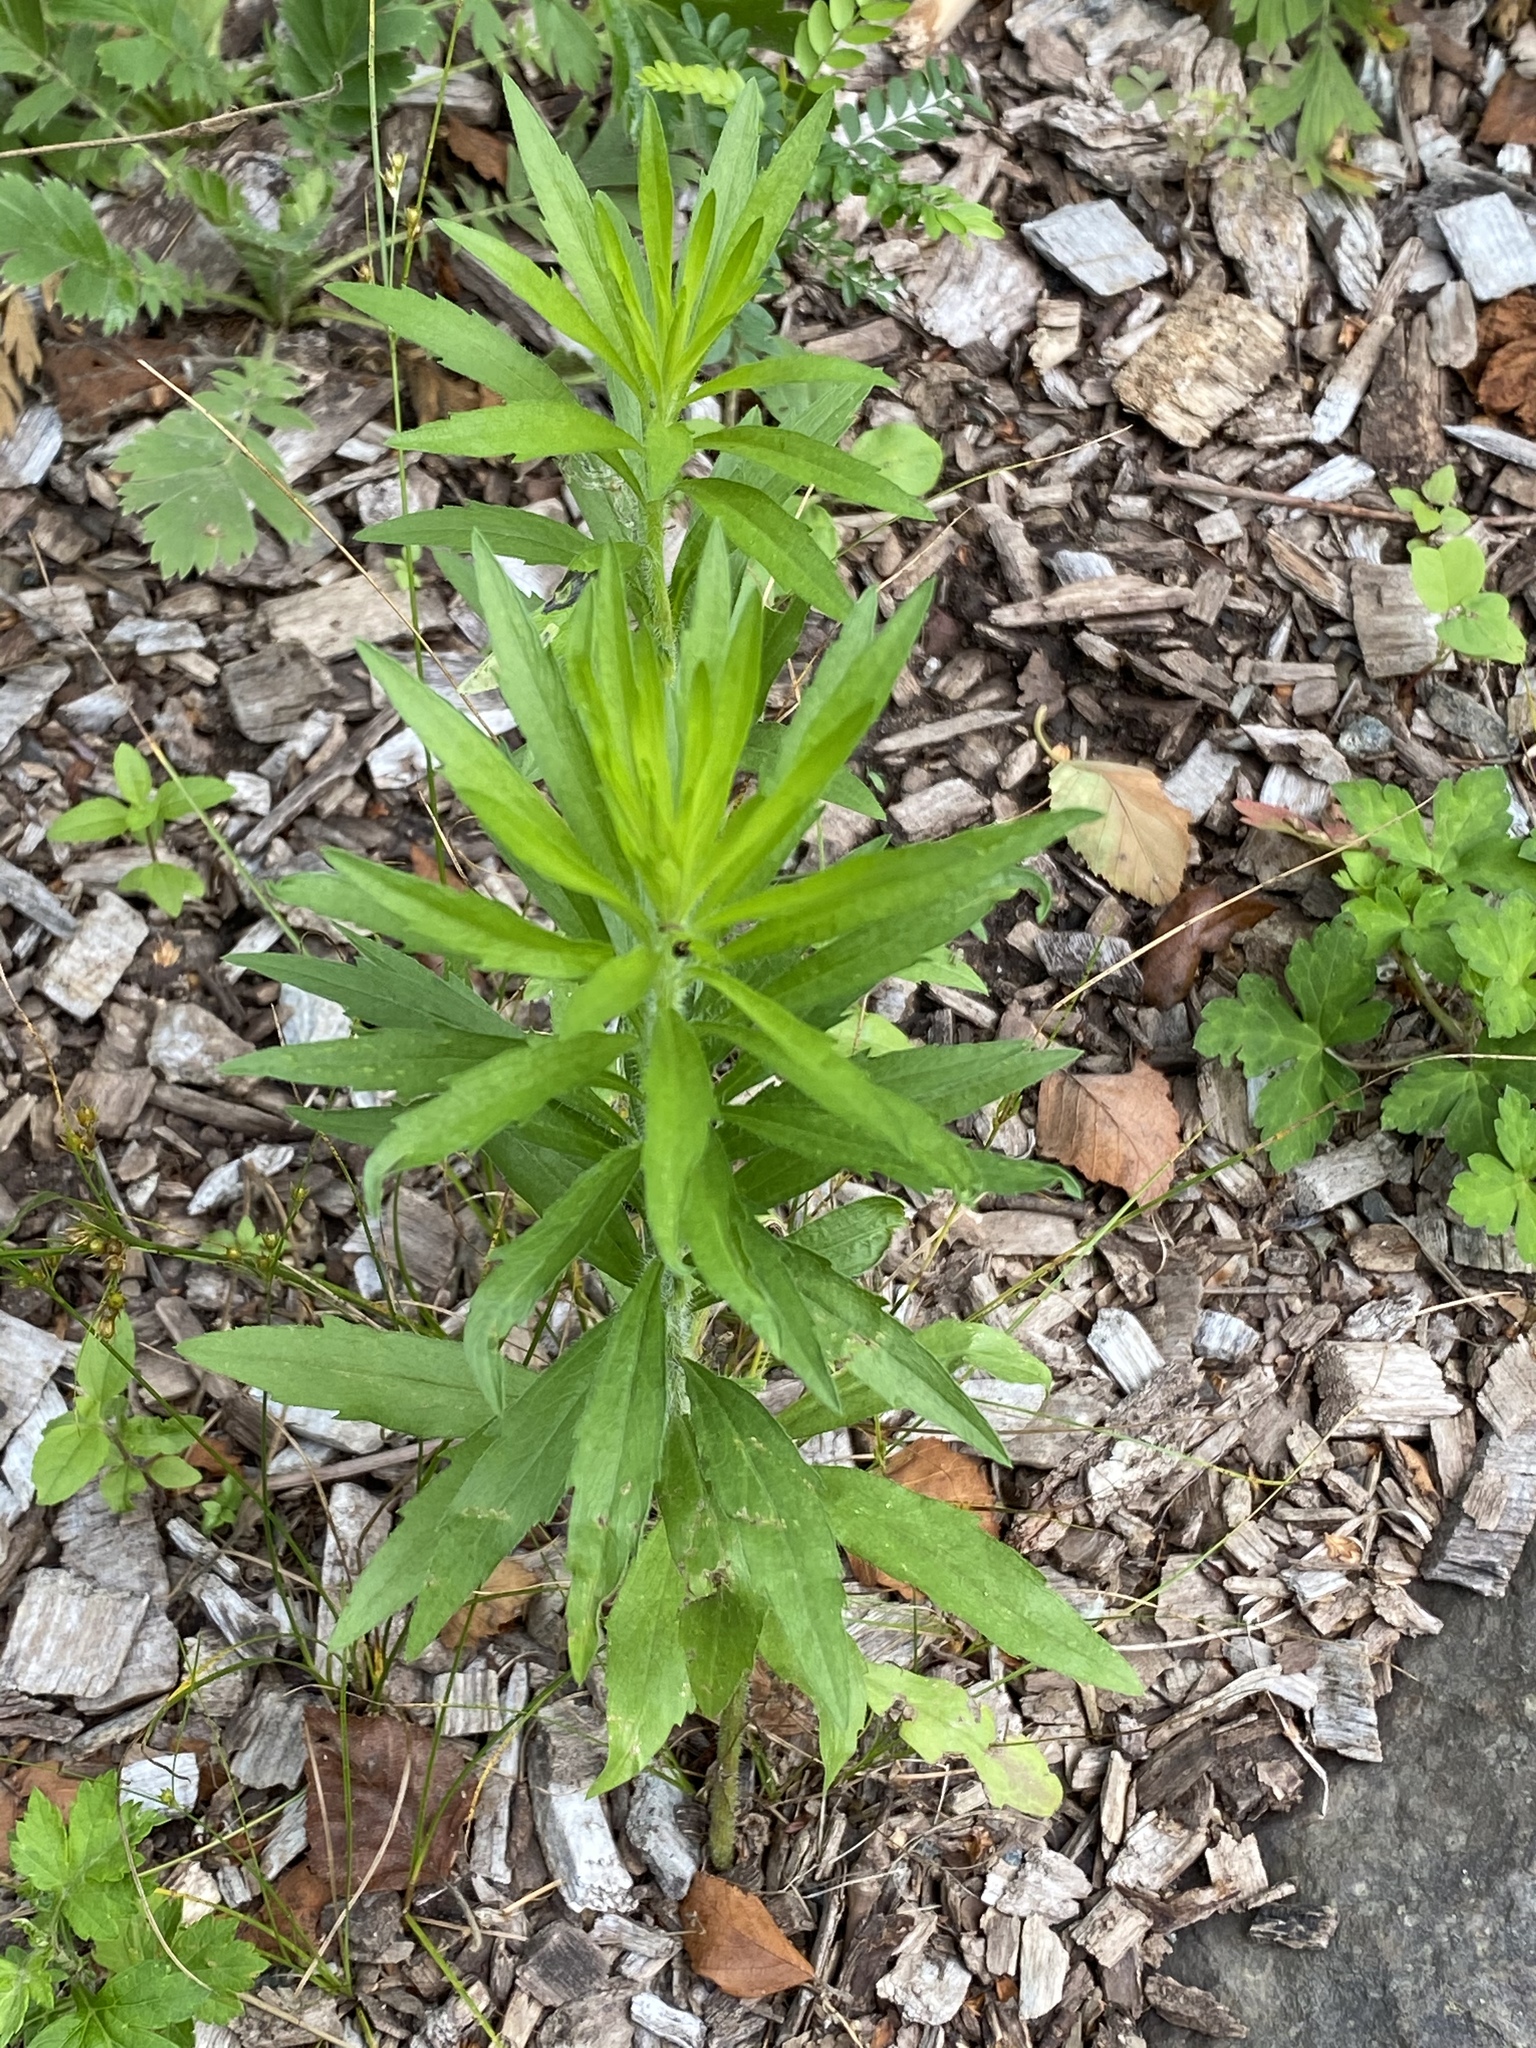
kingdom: Plantae
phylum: Tracheophyta
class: Magnoliopsida
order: Asterales
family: Asteraceae
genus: Erigeron
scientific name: Erigeron canadensis
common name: Canadian fleabane
